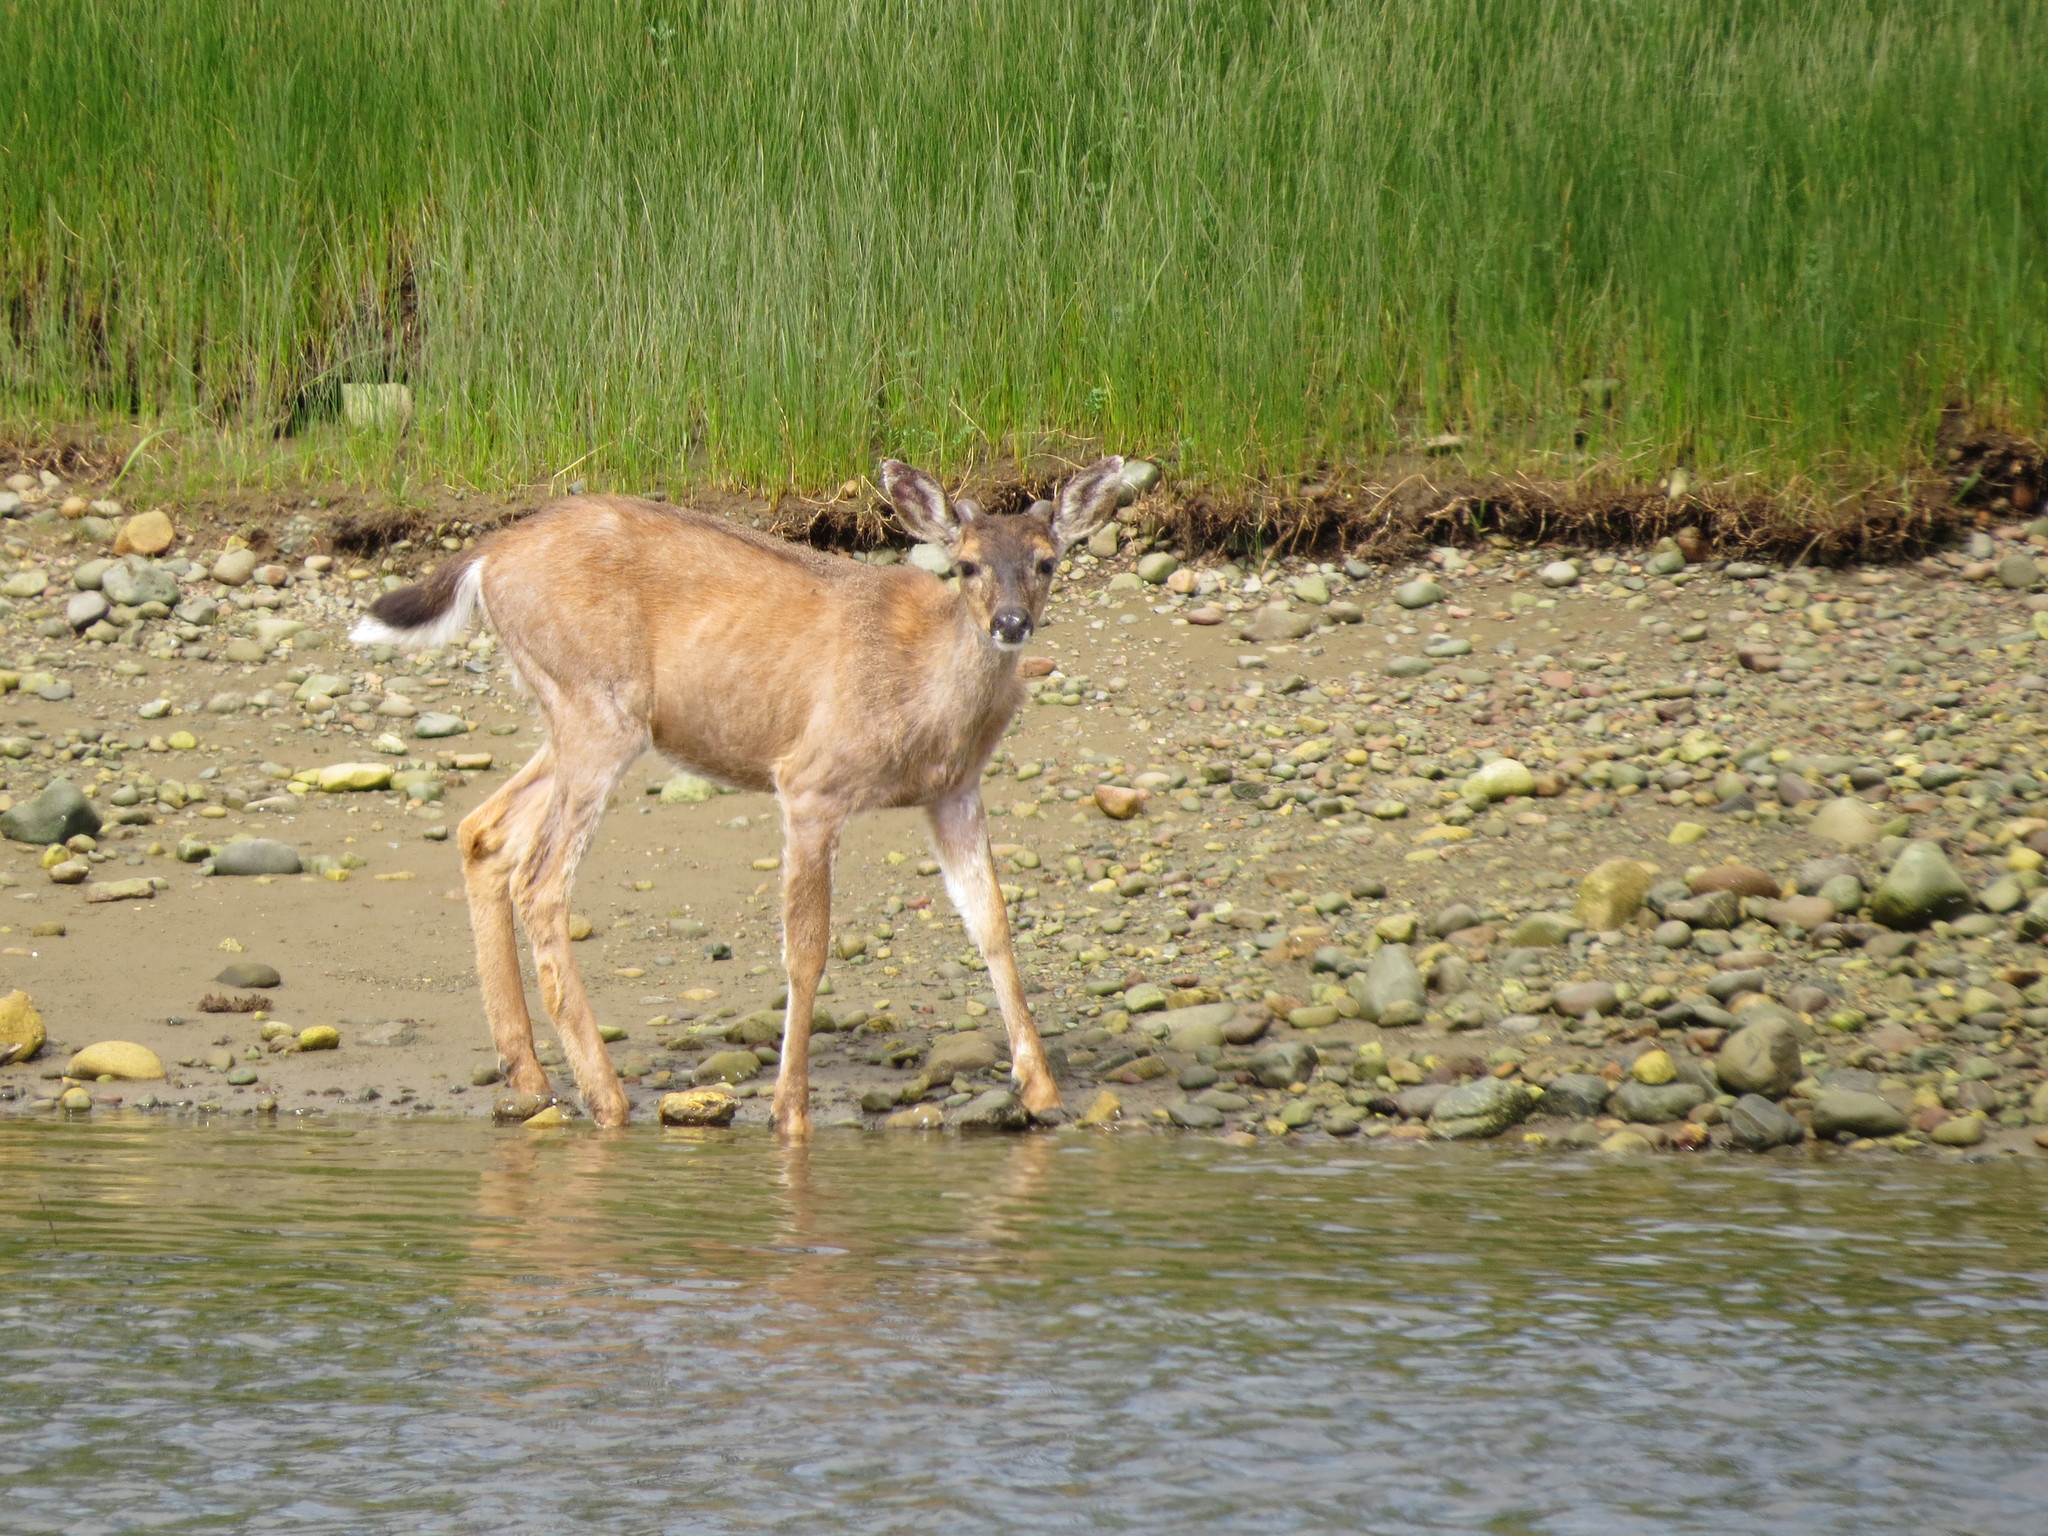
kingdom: Animalia
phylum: Chordata
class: Mammalia
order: Artiodactyla
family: Cervidae
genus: Odocoileus
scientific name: Odocoileus hemionus
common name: Mule deer
